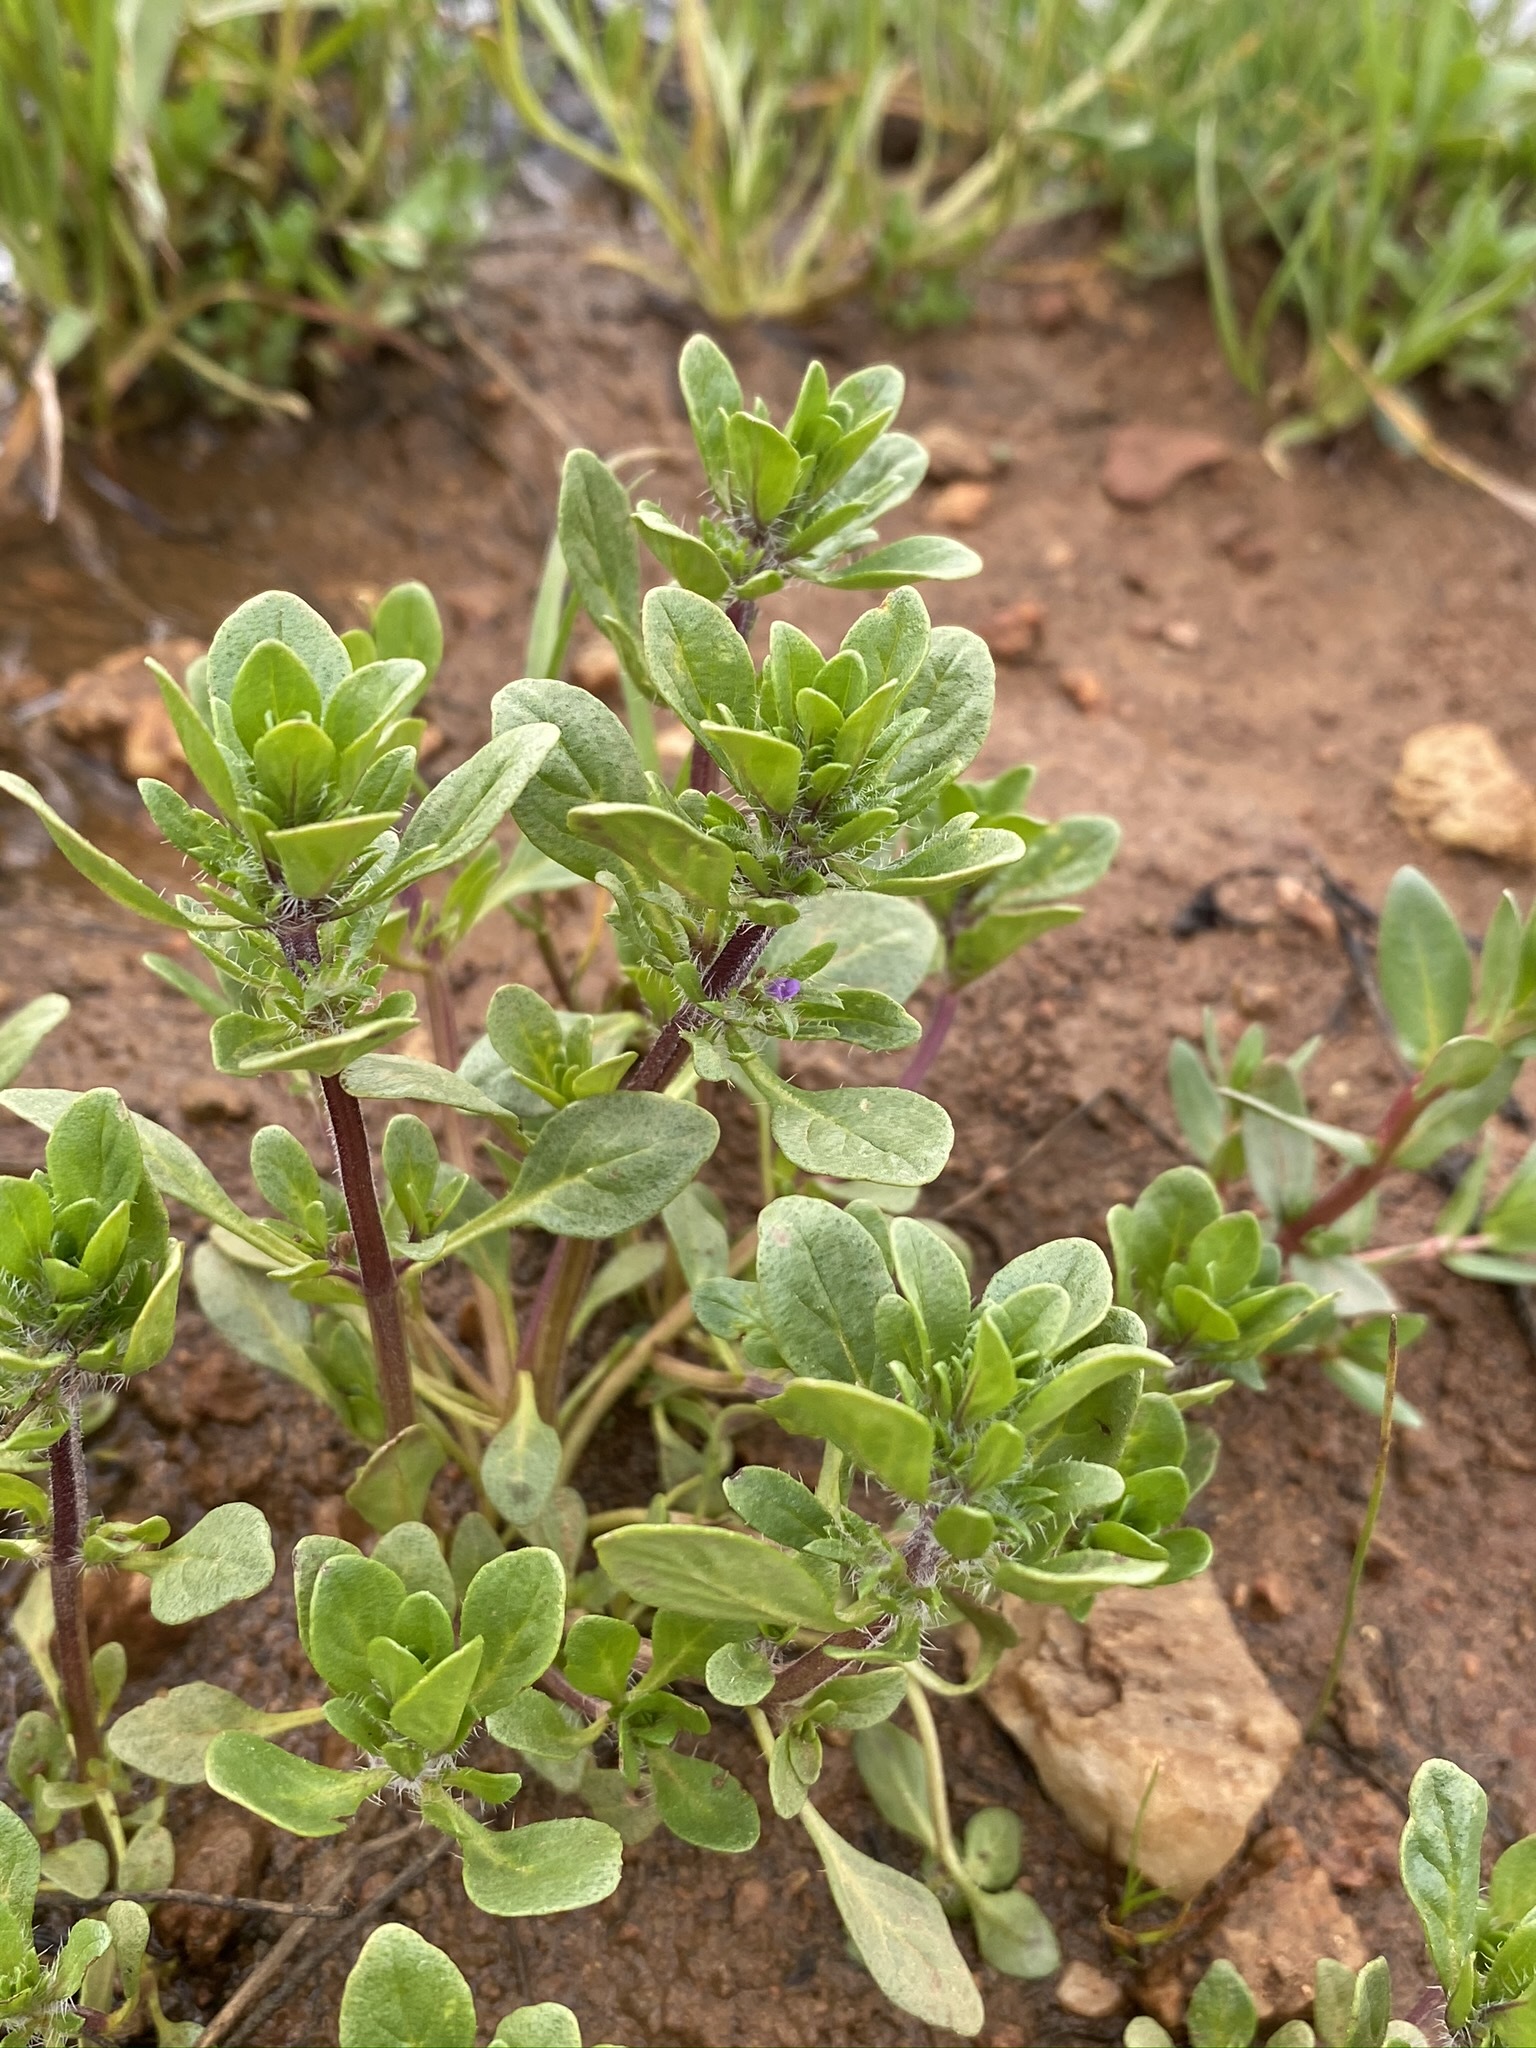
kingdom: Plantae
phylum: Tracheophyta
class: Magnoliopsida
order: Lamiales
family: Lamiaceae
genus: Pogogyne
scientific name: Pogogyne zizyphoroides
